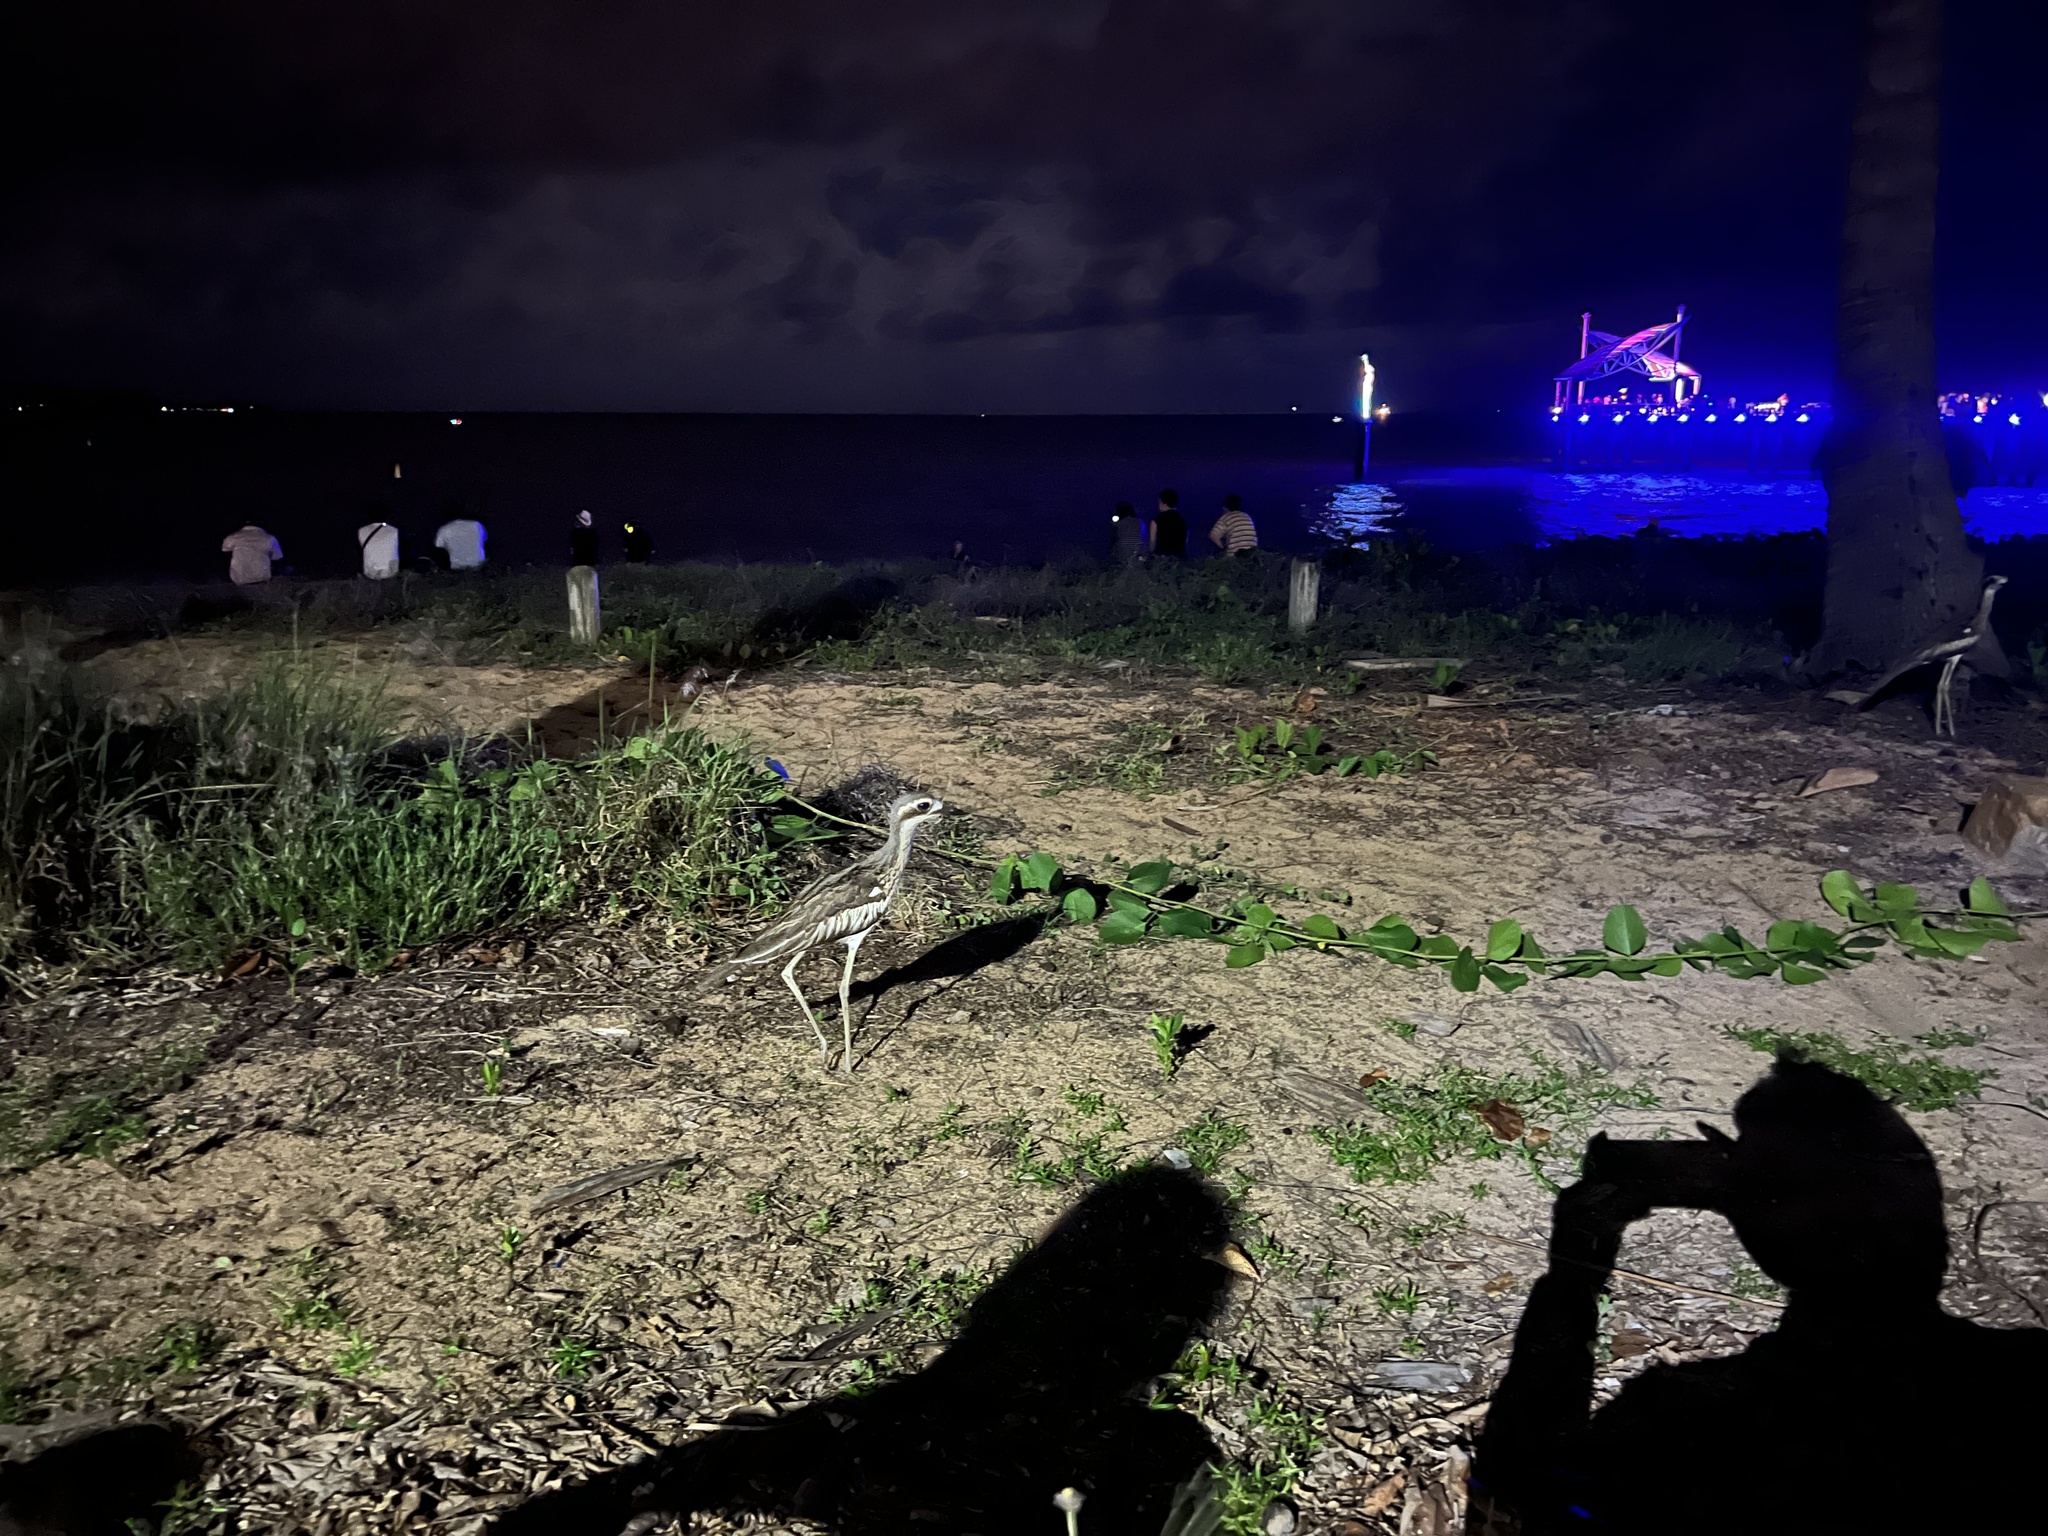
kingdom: Animalia
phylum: Chordata
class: Aves
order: Charadriiformes
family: Burhinidae
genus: Burhinus
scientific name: Burhinus grallarius
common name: Bush stone-curlew
